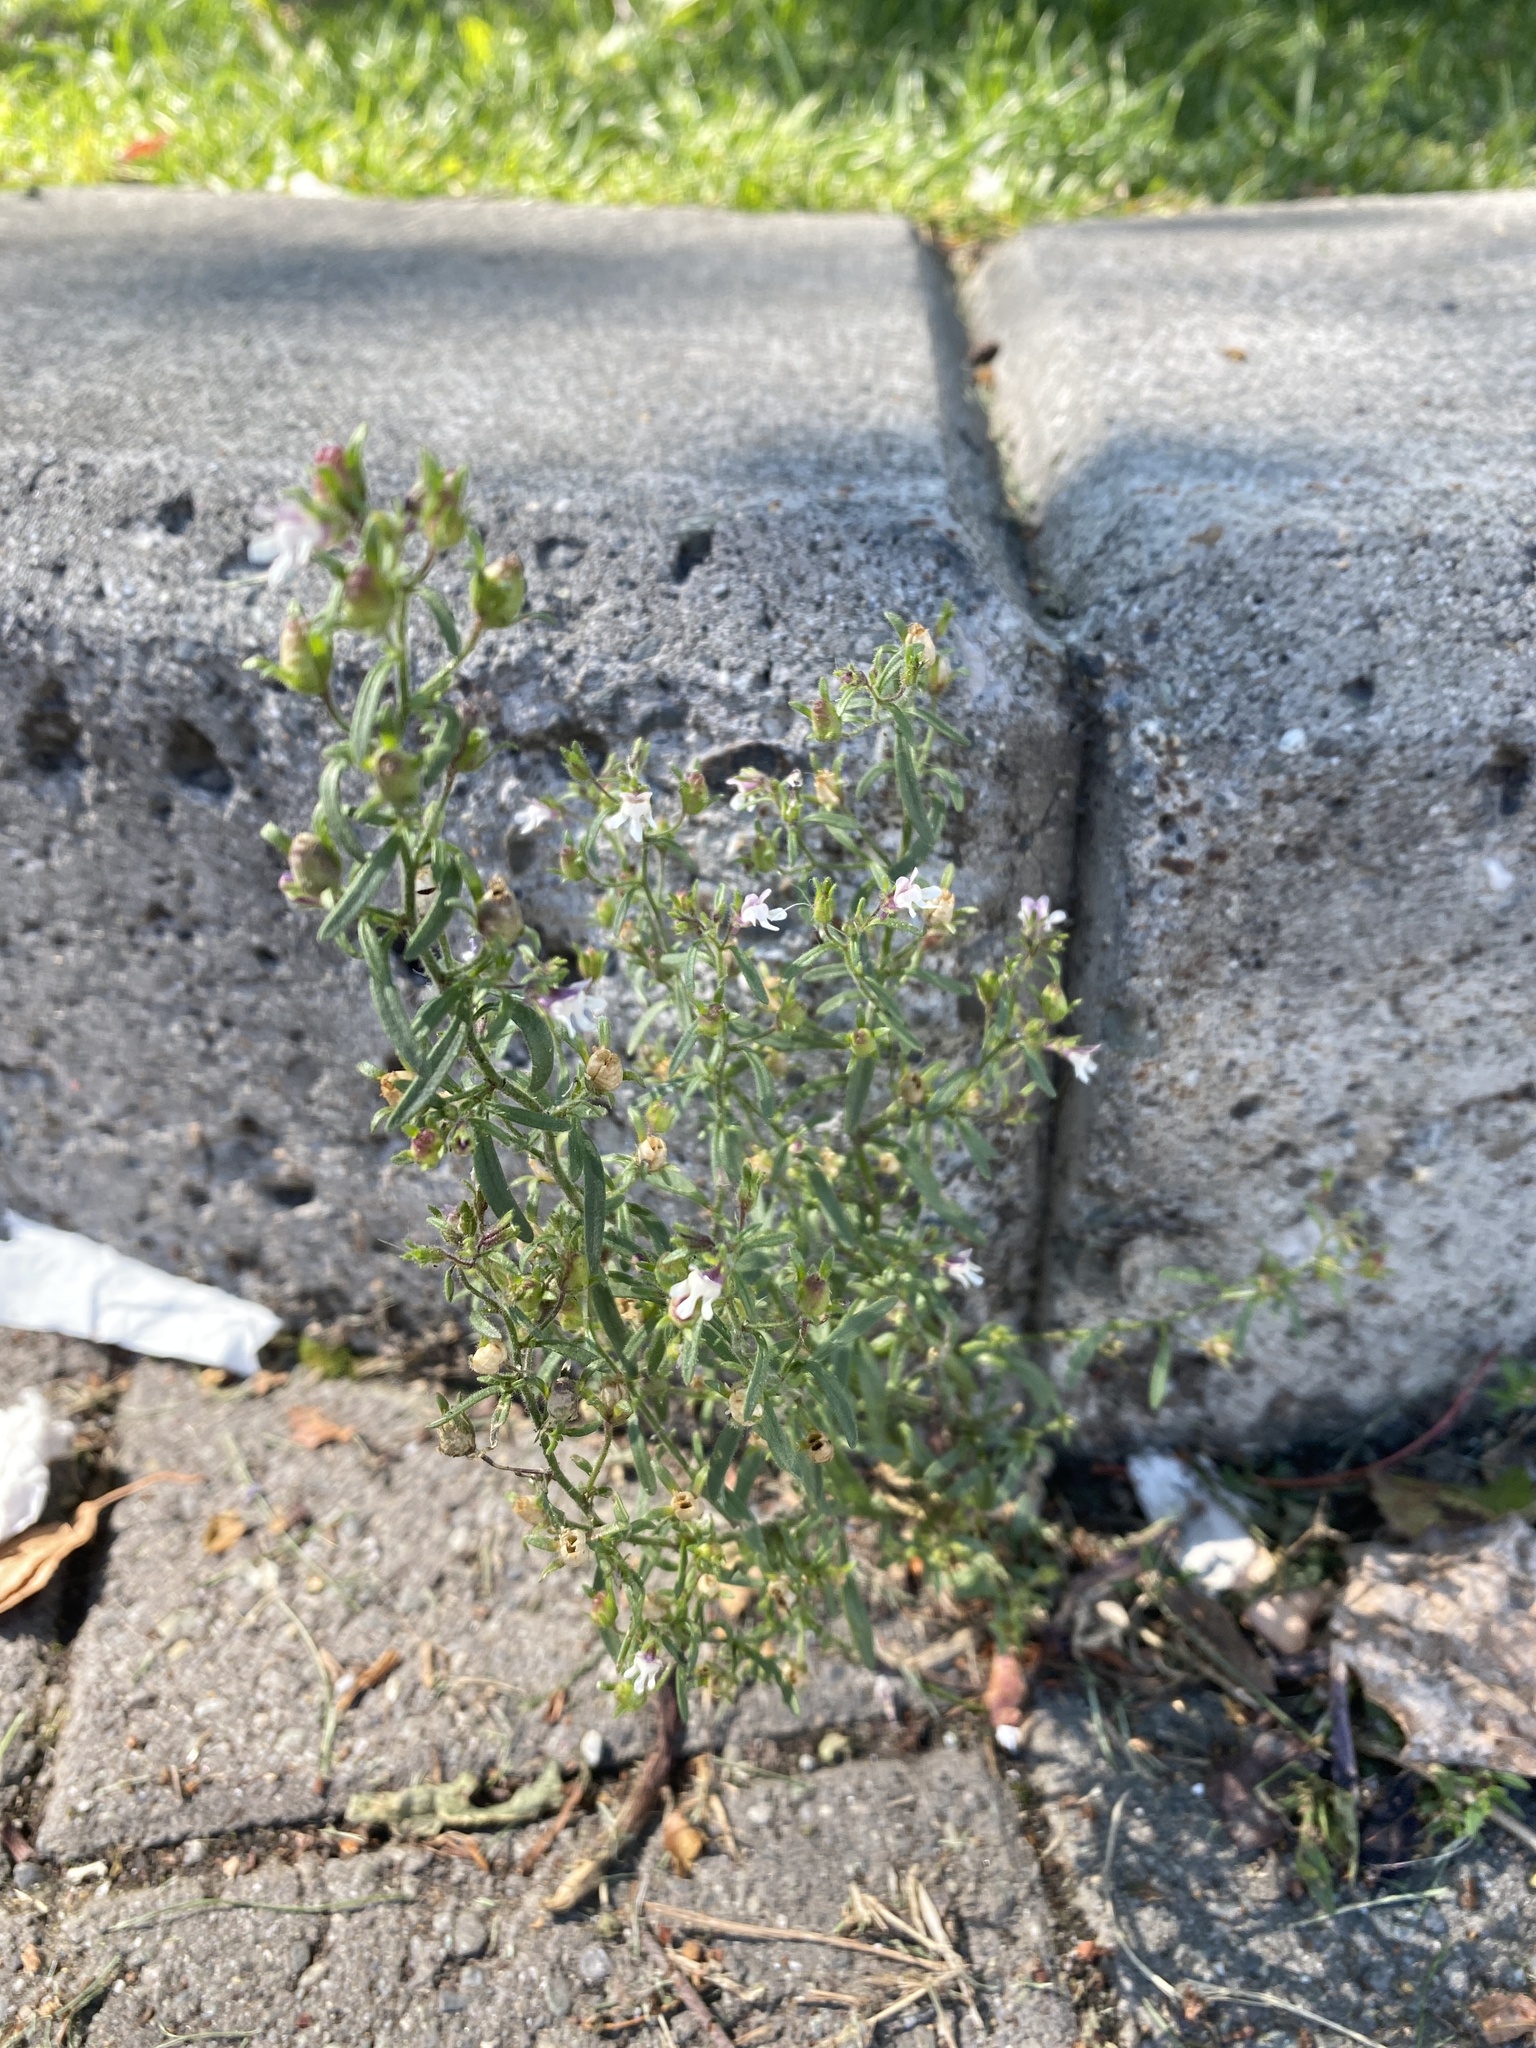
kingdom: Plantae
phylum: Tracheophyta
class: Magnoliopsida
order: Lamiales
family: Plantaginaceae
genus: Chaenorhinum
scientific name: Chaenorhinum minus
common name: Dwarf snapdragon
